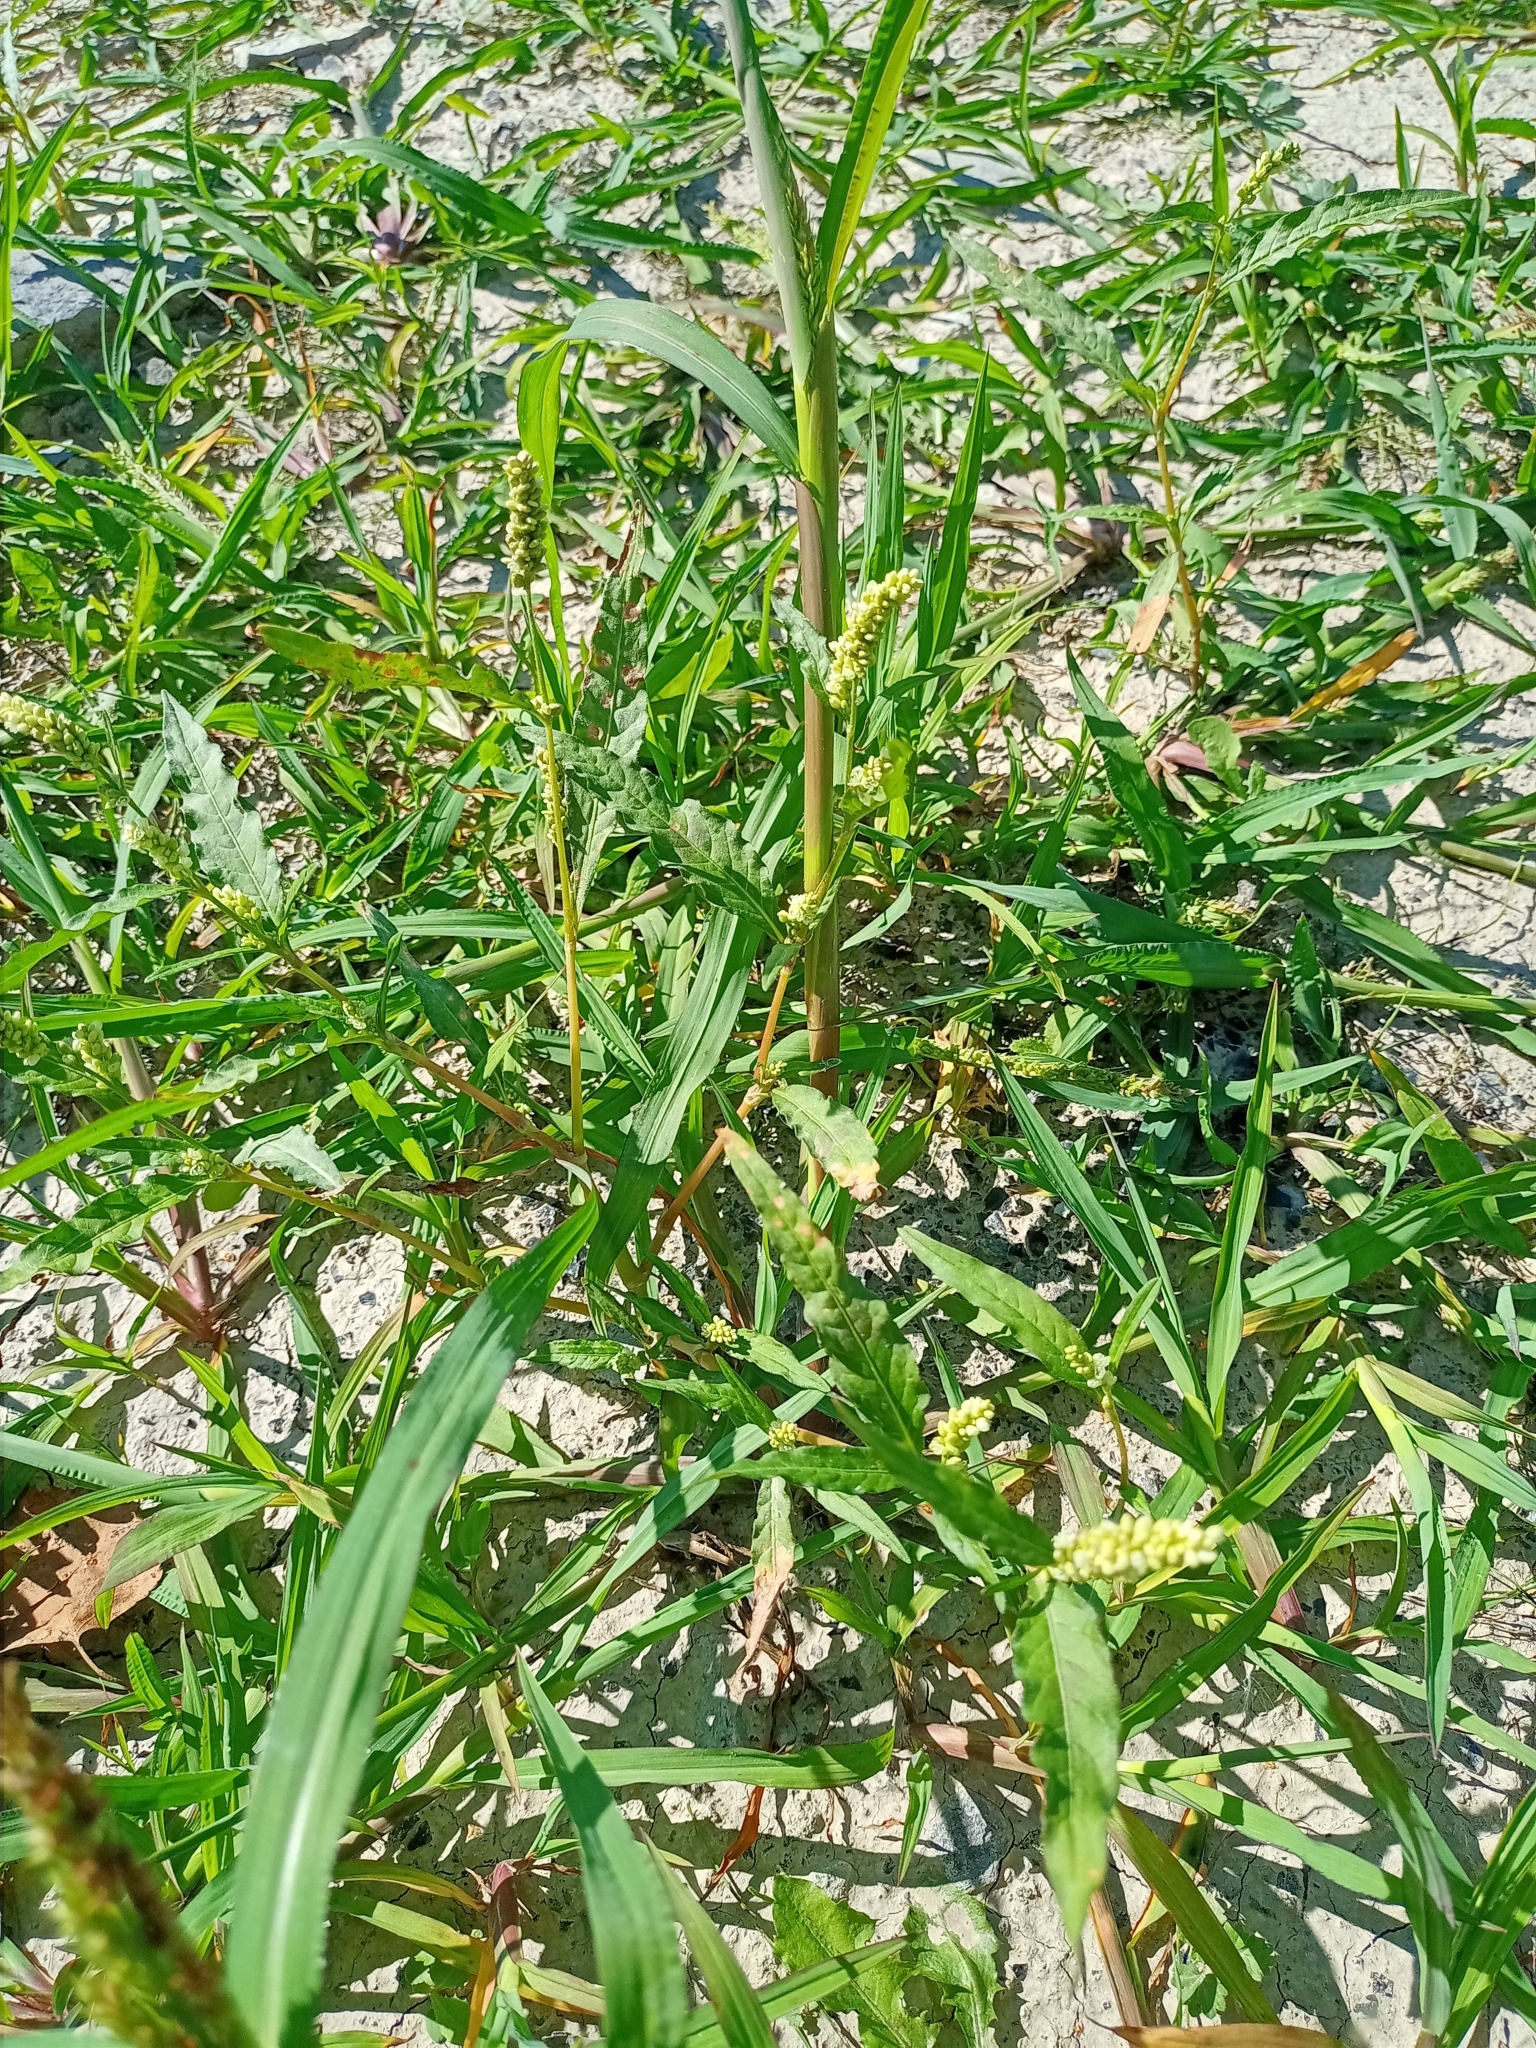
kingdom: Plantae
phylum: Tracheophyta
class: Magnoliopsida
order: Caryophyllales
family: Polygonaceae
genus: Persicaria
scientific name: Persicaria lapathifolia
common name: Curlytop knotweed
